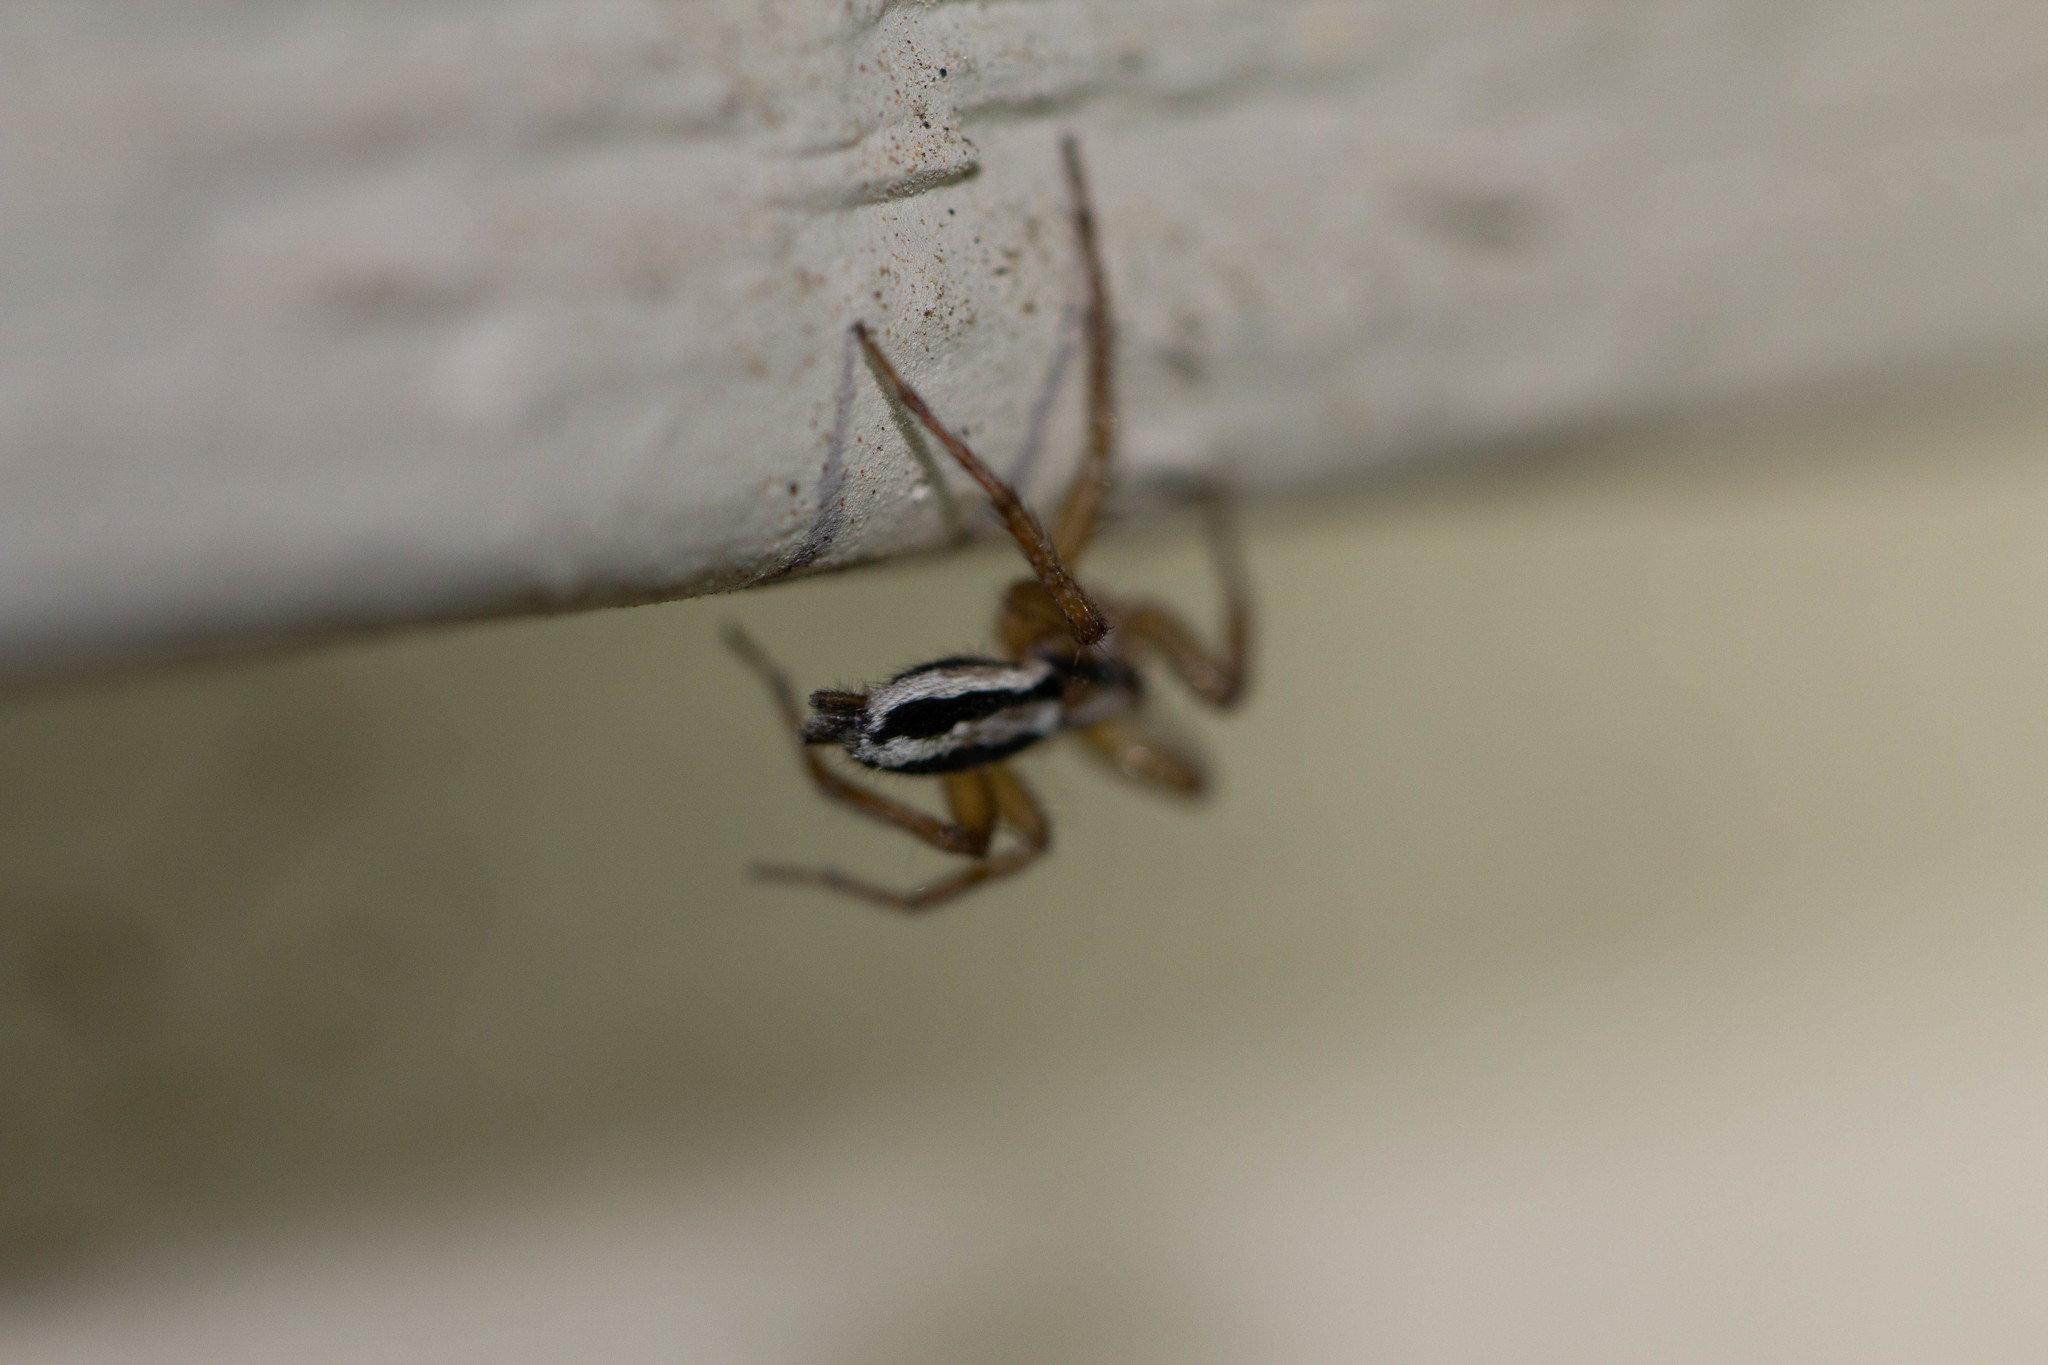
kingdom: Animalia
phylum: Arthropoda
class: Arachnida
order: Araneae
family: Gnaphosidae
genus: Cesonia
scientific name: Cesonia bilineata
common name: Two-lined stealthy ground spider
